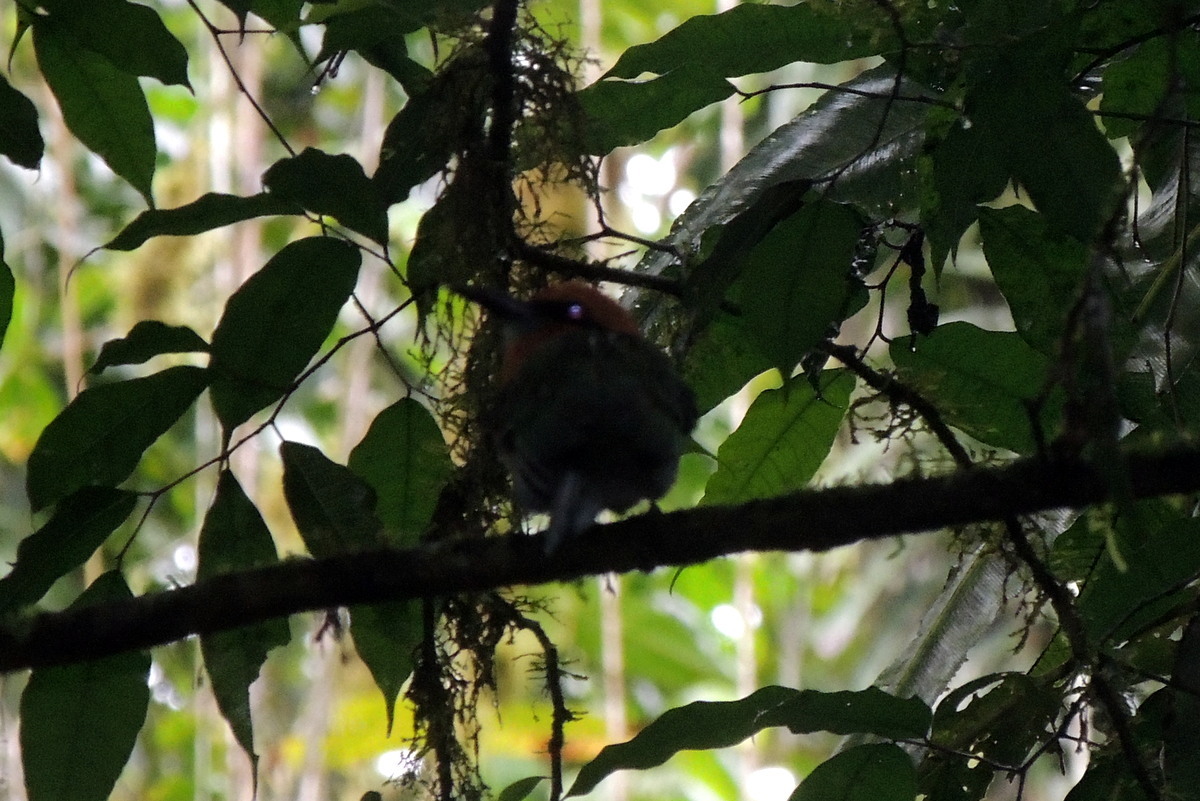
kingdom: Animalia
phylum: Chordata
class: Aves
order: Coraciiformes
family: Momotidae
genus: Electron
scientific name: Electron platyrhynchum
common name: Broad-billed motmot
